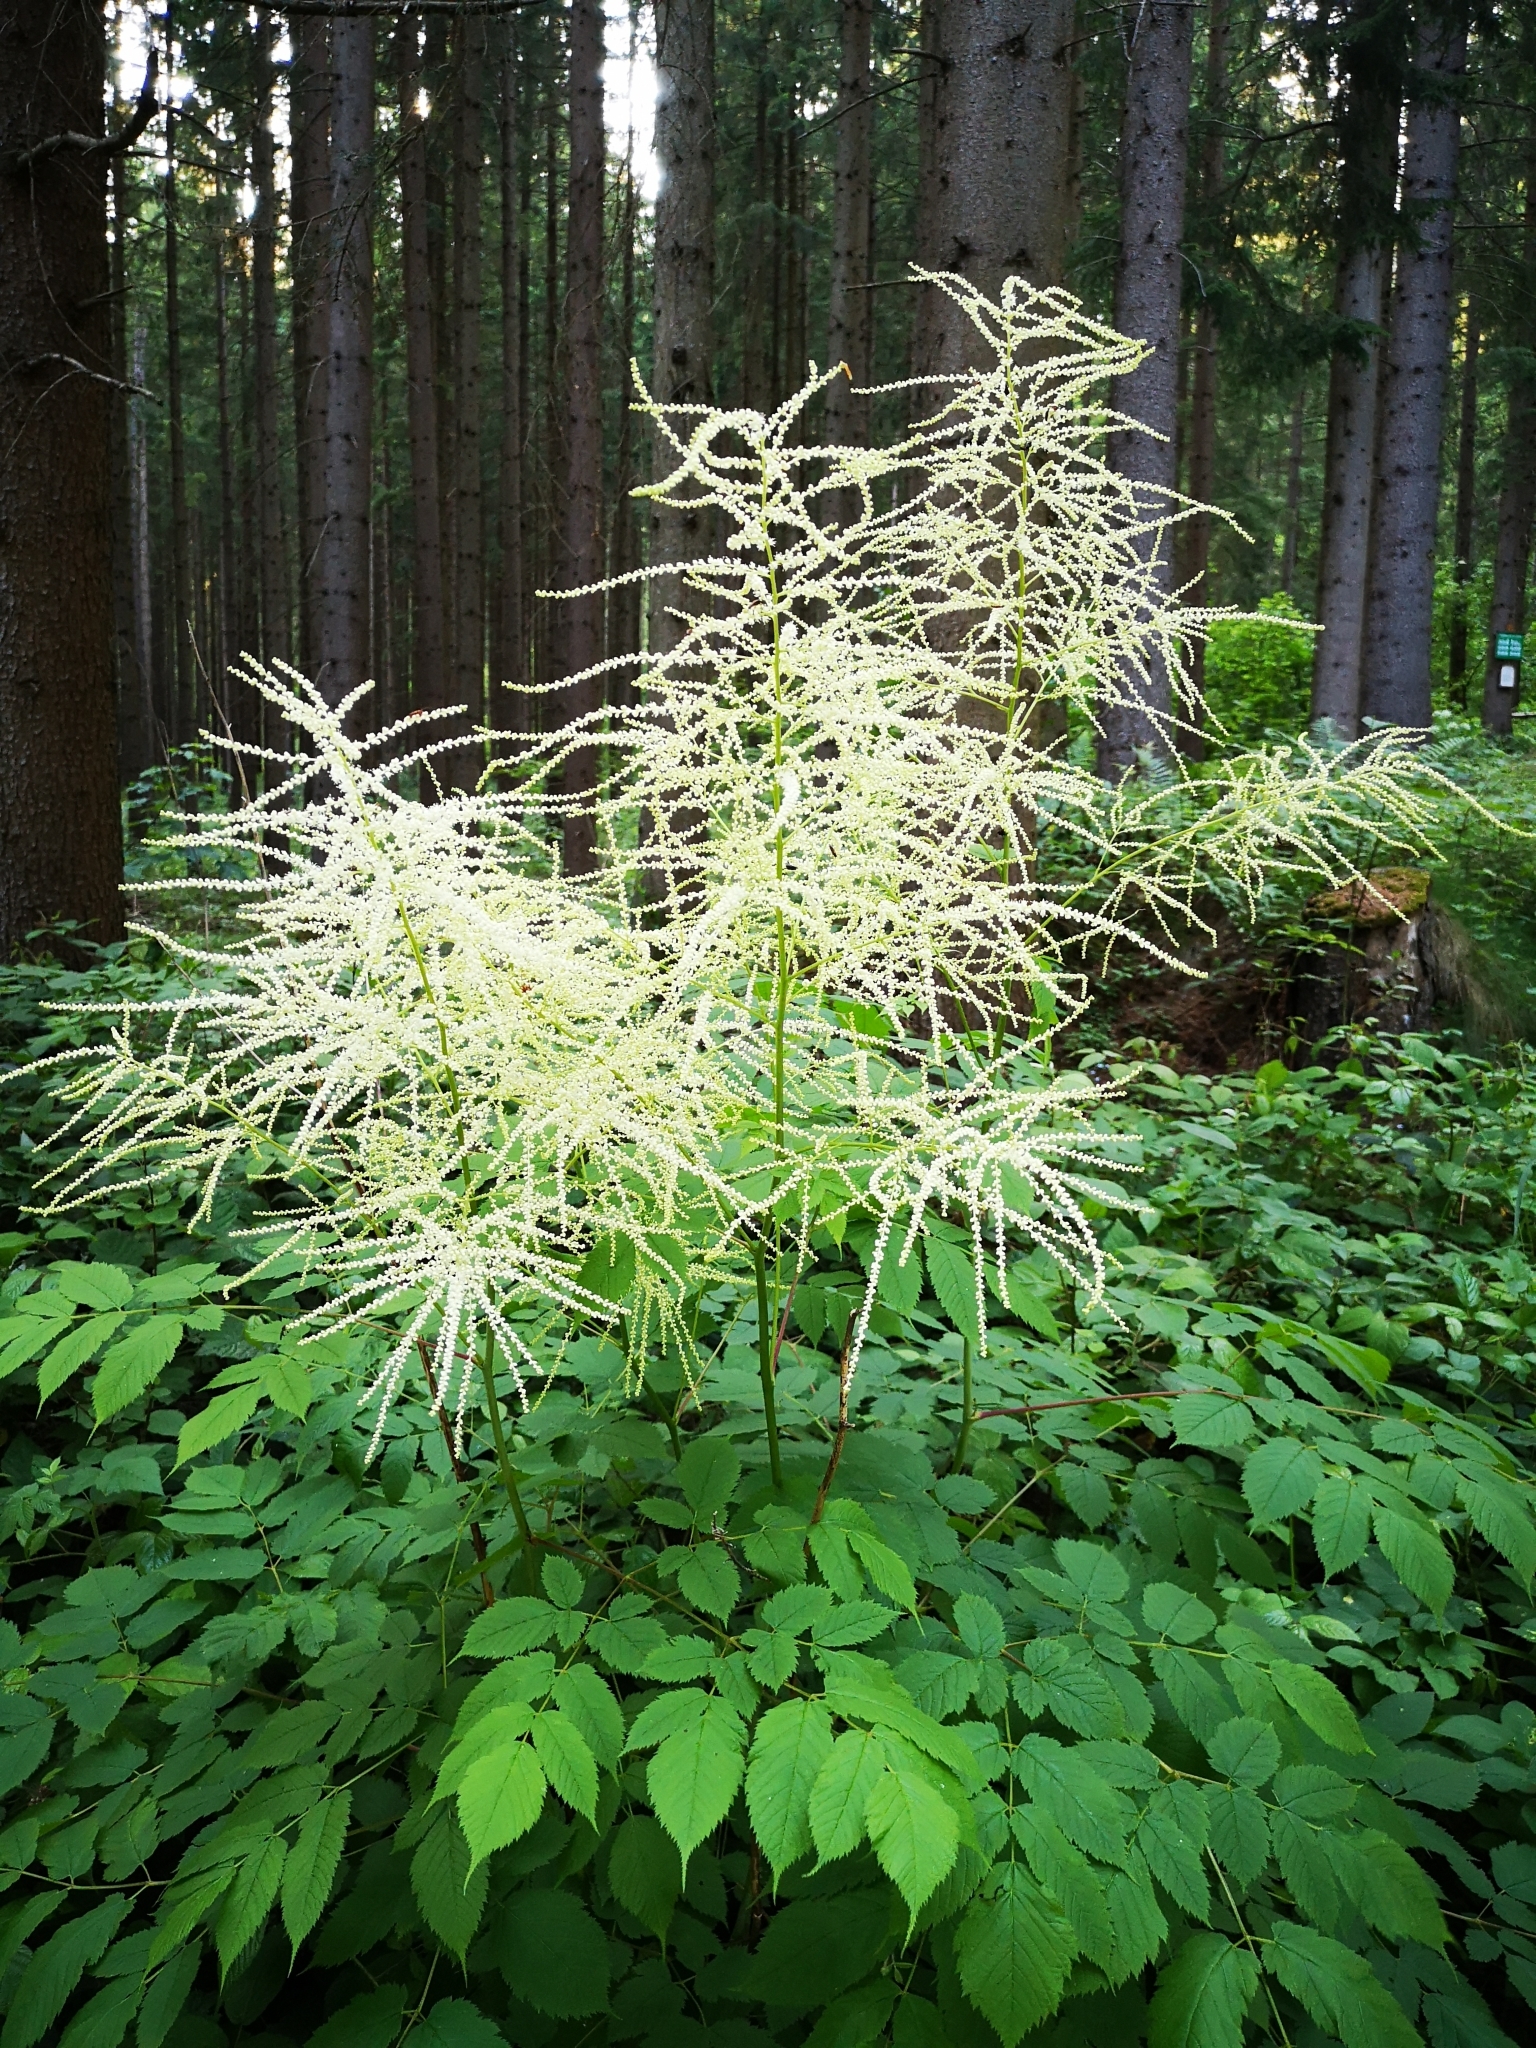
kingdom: Plantae
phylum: Tracheophyta
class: Magnoliopsida
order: Rosales
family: Rosaceae
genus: Aruncus
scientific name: Aruncus dioicus
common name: Buck's-beard
